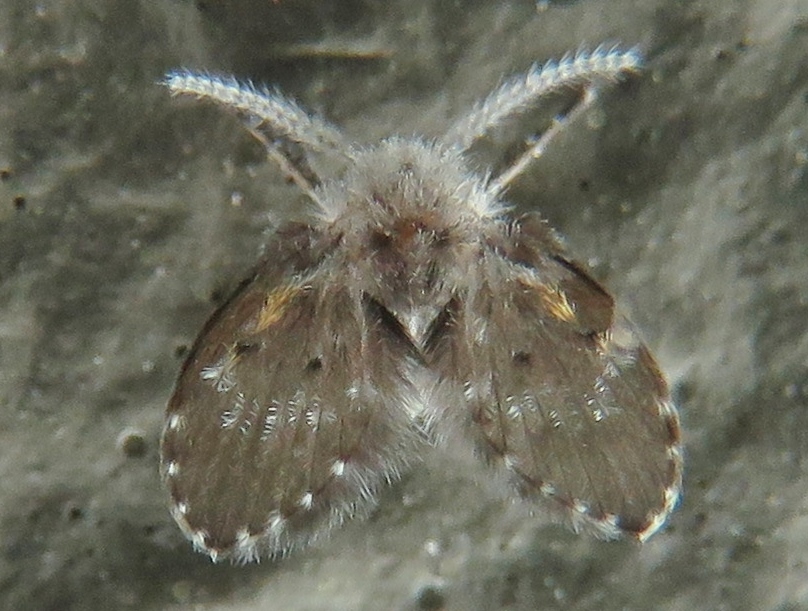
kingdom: Animalia
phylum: Arthropoda
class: Insecta
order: Diptera
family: Psychodidae
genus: Clogmia
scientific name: Clogmia albipunctatus
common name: White-spotted moth fly
